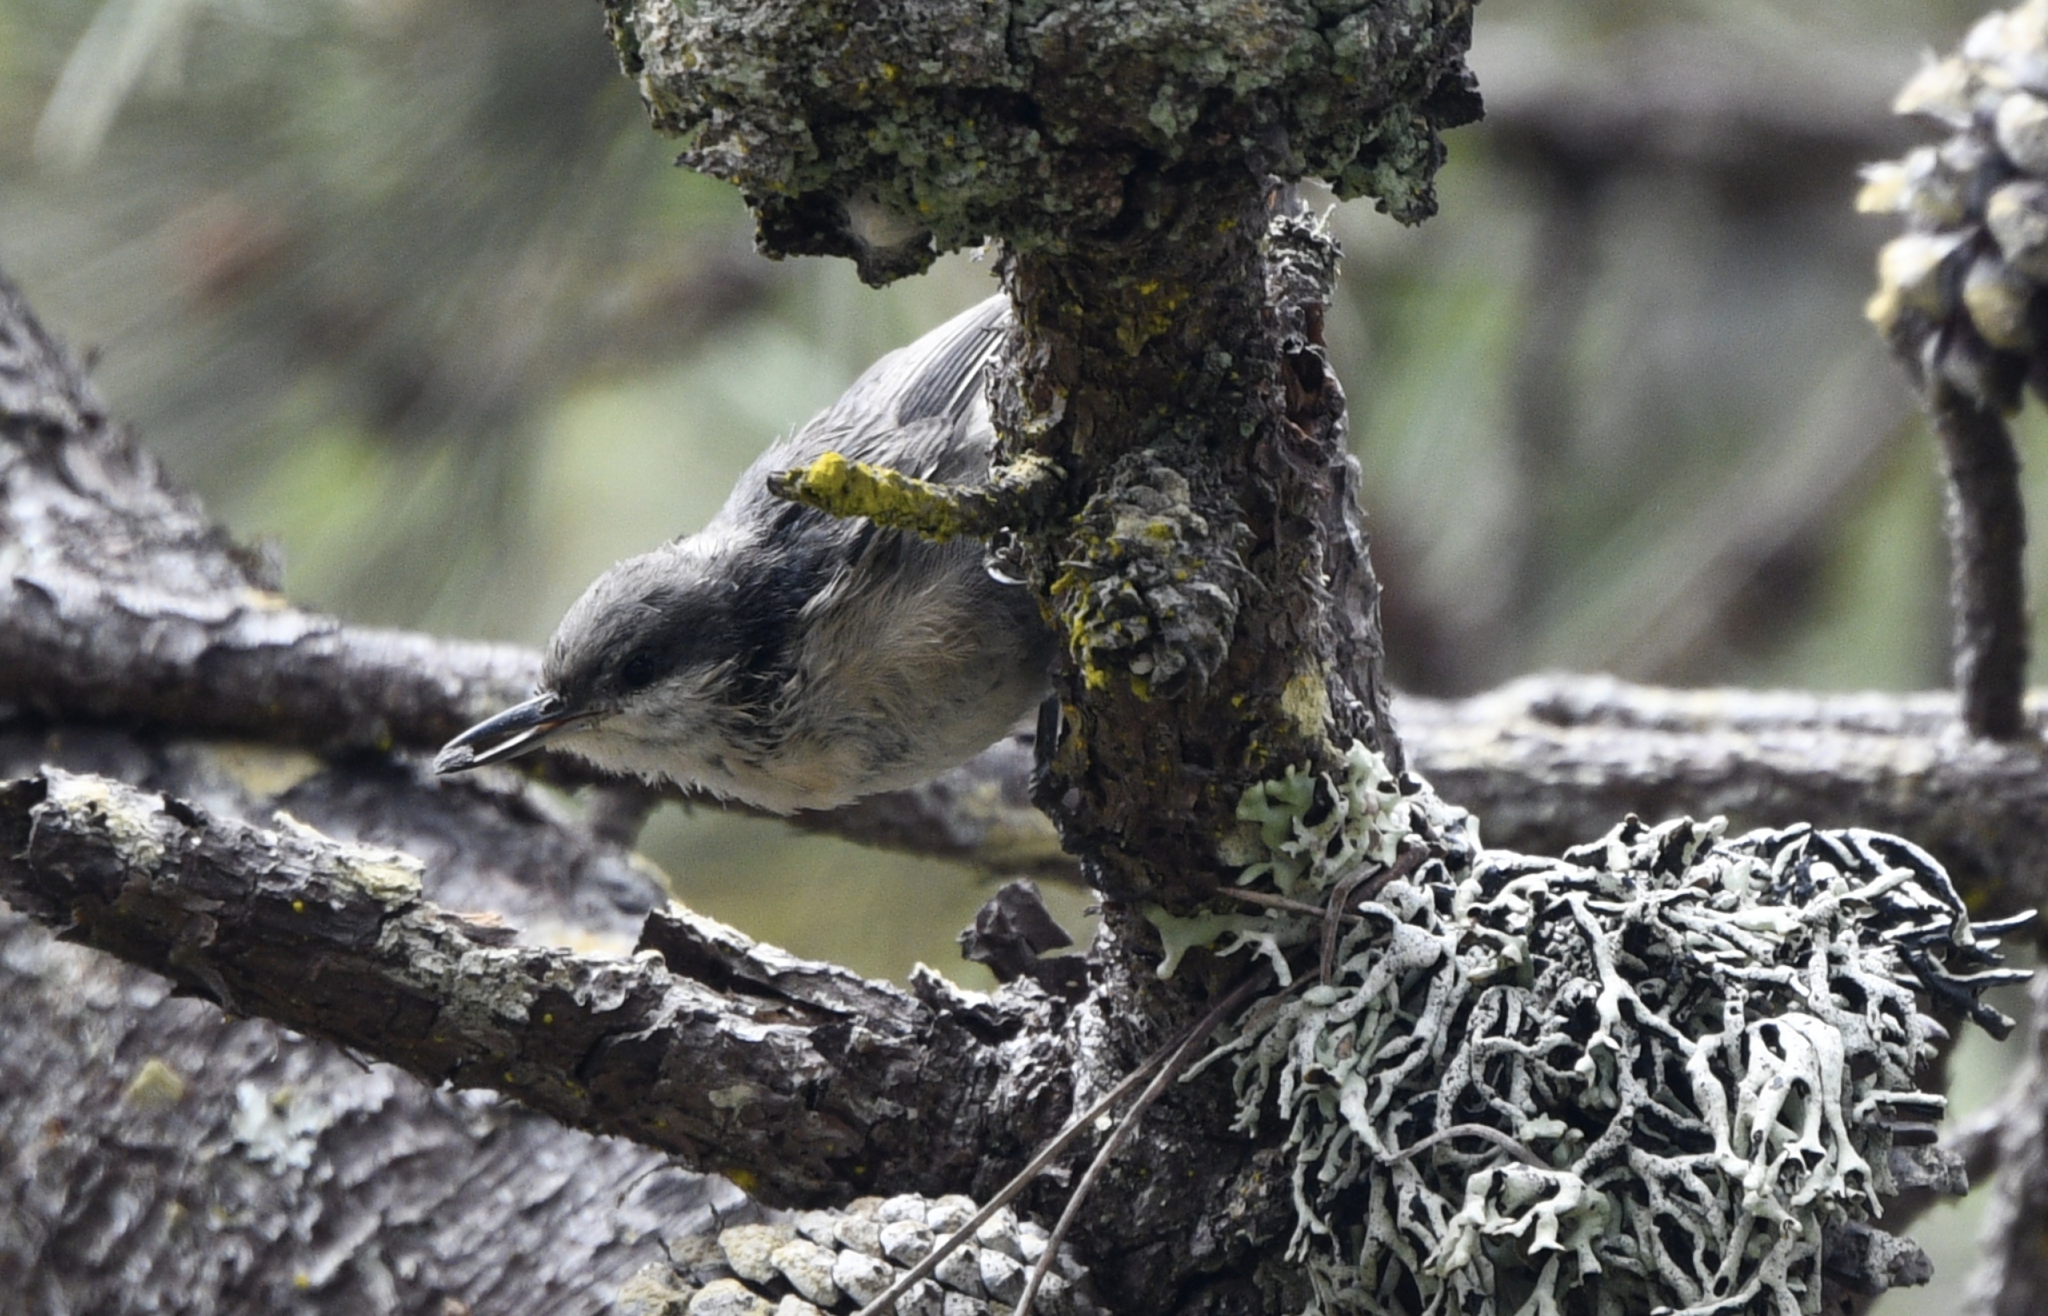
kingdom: Animalia
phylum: Chordata
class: Aves
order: Passeriformes
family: Sittidae
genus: Sitta
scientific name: Sitta pygmaea
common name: Pygmy nuthatch
